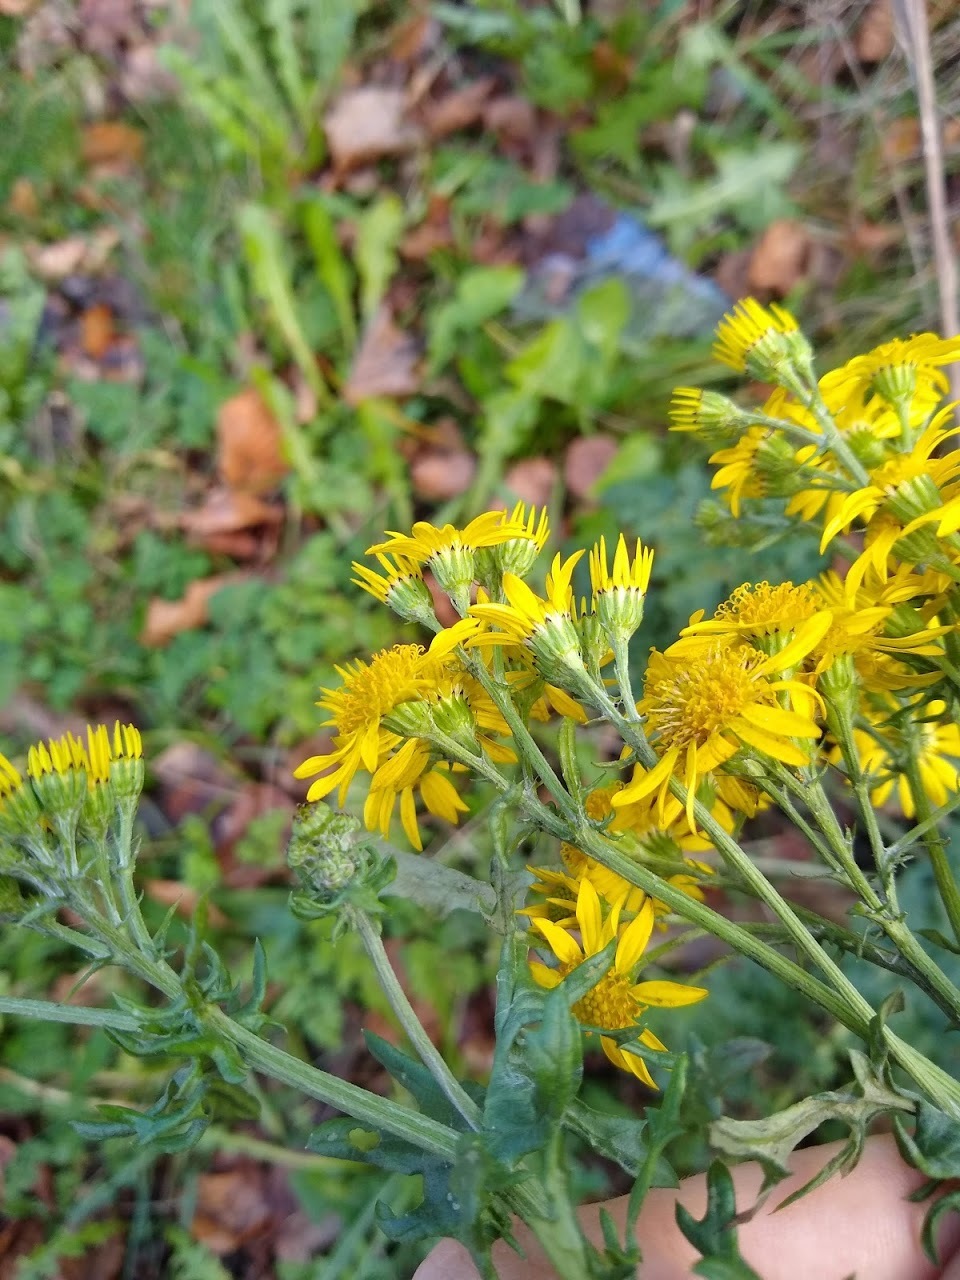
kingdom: Plantae
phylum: Tracheophyta
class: Magnoliopsida
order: Asterales
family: Asteraceae
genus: Jacobaea
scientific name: Jacobaea vulgaris
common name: Stinking willie
